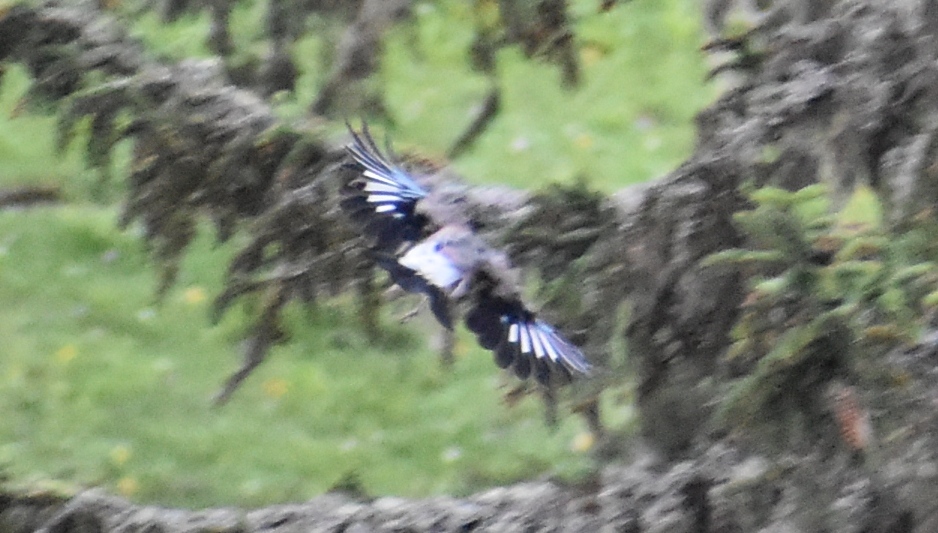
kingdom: Animalia
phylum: Chordata
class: Aves
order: Passeriformes
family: Corvidae
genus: Garrulus
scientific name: Garrulus glandarius
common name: Eurasian jay
